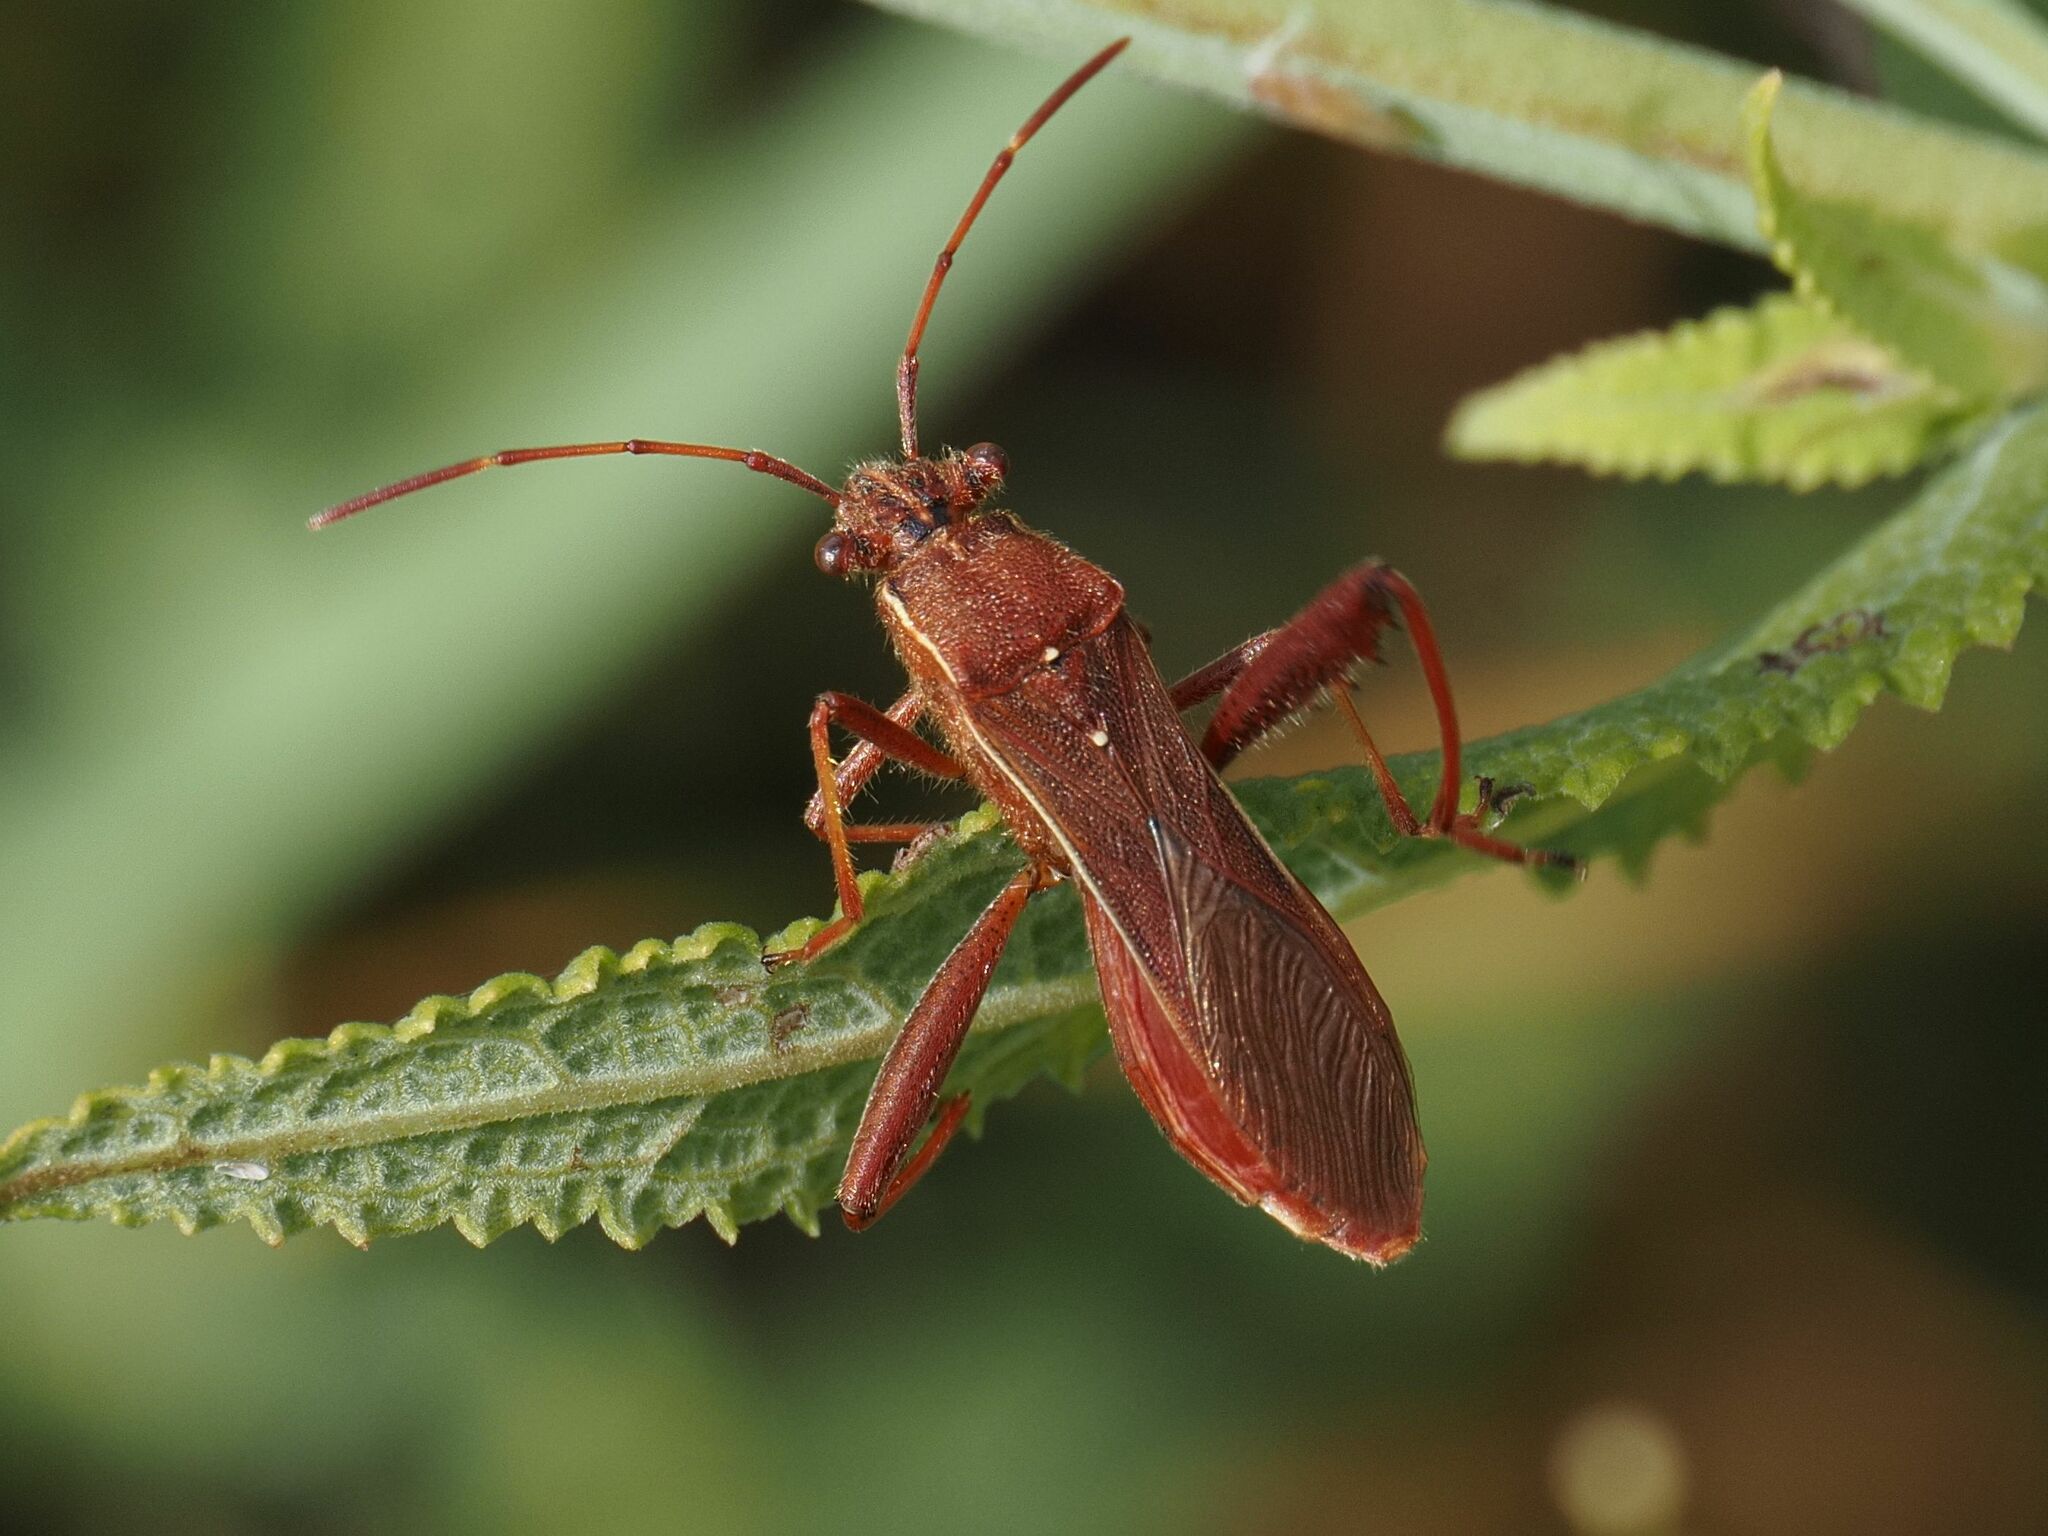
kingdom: Animalia
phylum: Arthropoda
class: Insecta
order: Hemiptera
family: Alydidae
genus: Camptopus
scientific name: Camptopus lateralis
